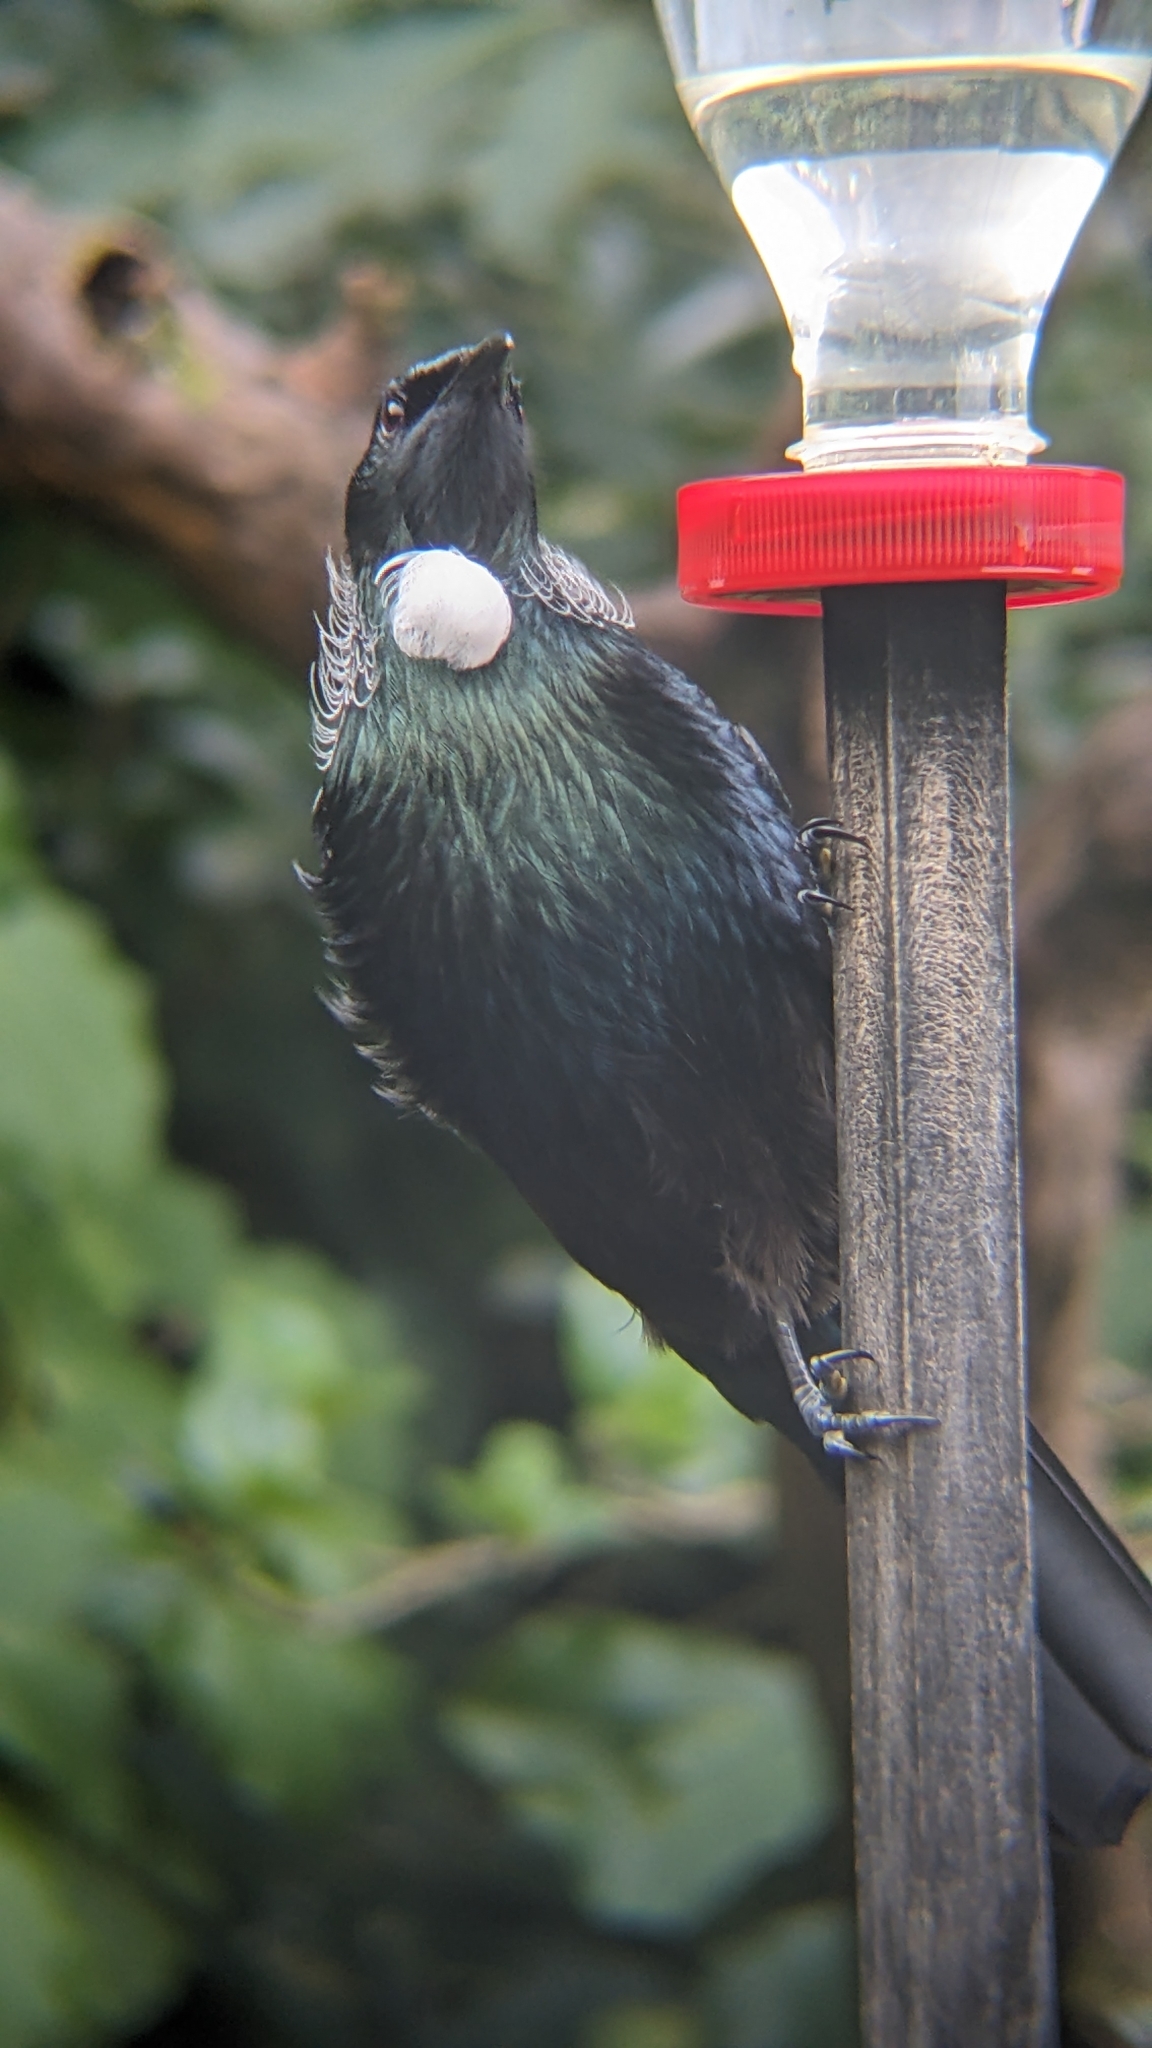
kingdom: Animalia
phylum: Chordata
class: Aves
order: Passeriformes
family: Meliphagidae
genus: Prosthemadera
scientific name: Prosthemadera novaeseelandiae
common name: Tui
